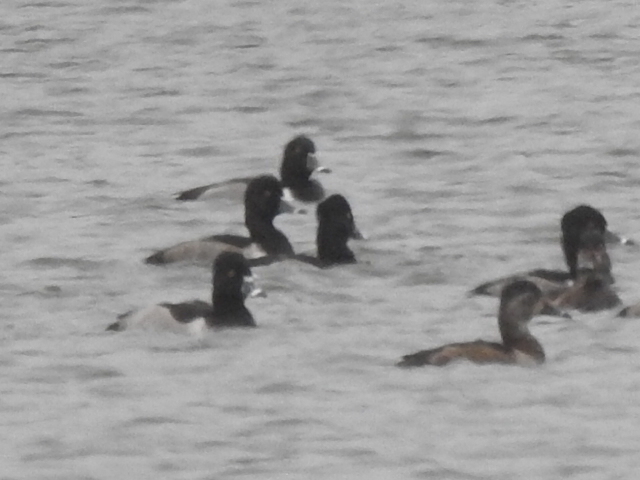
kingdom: Animalia
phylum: Chordata
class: Aves
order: Anseriformes
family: Anatidae
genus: Aythya
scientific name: Aythya collaris
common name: Ring-necked duck
